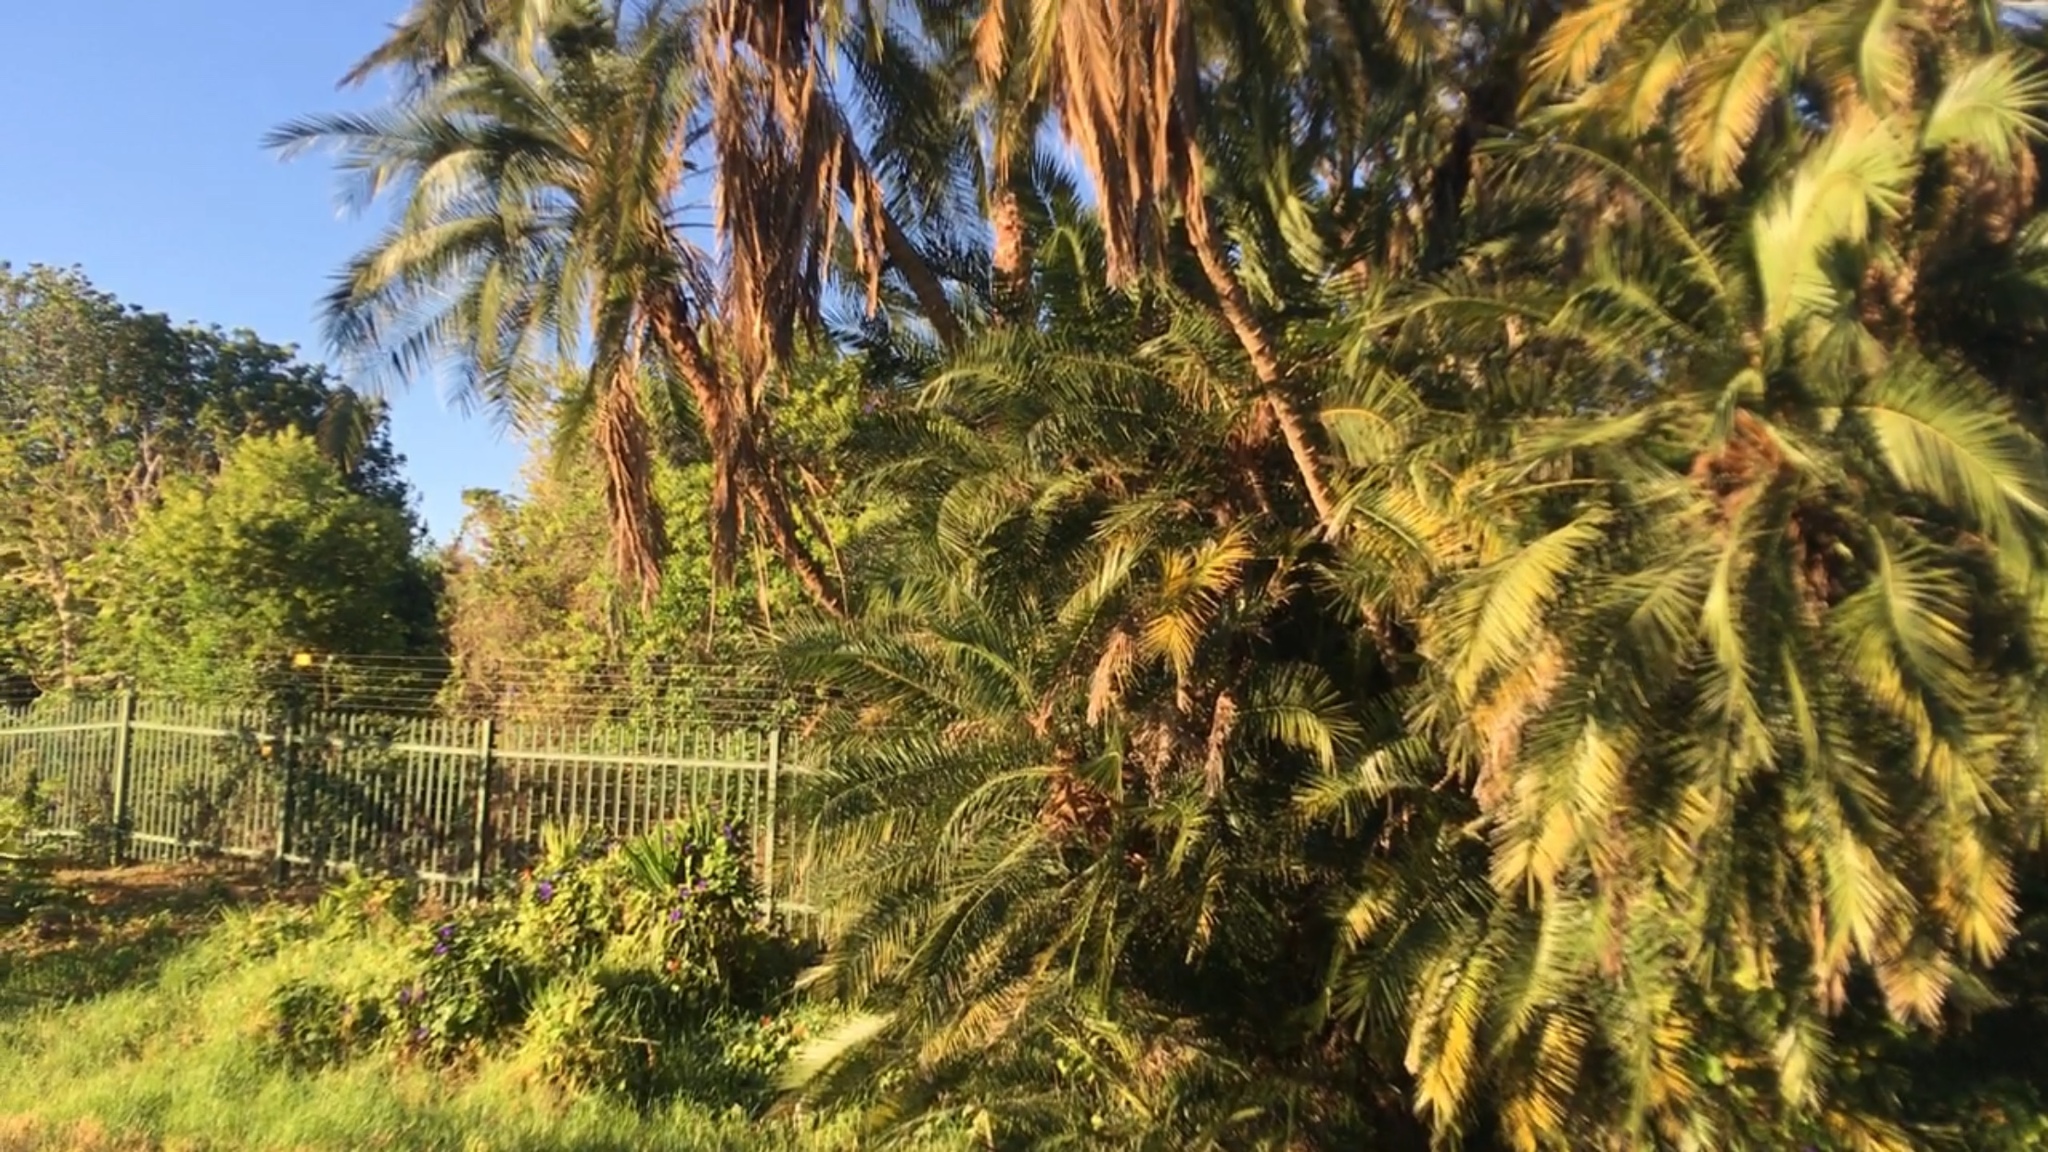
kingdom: Plantae
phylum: Tracheophyta
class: Liliopsida
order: Arecales
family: Arecaceae
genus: Phoenix
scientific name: Phoenix reclinata
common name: Senegal date palm
